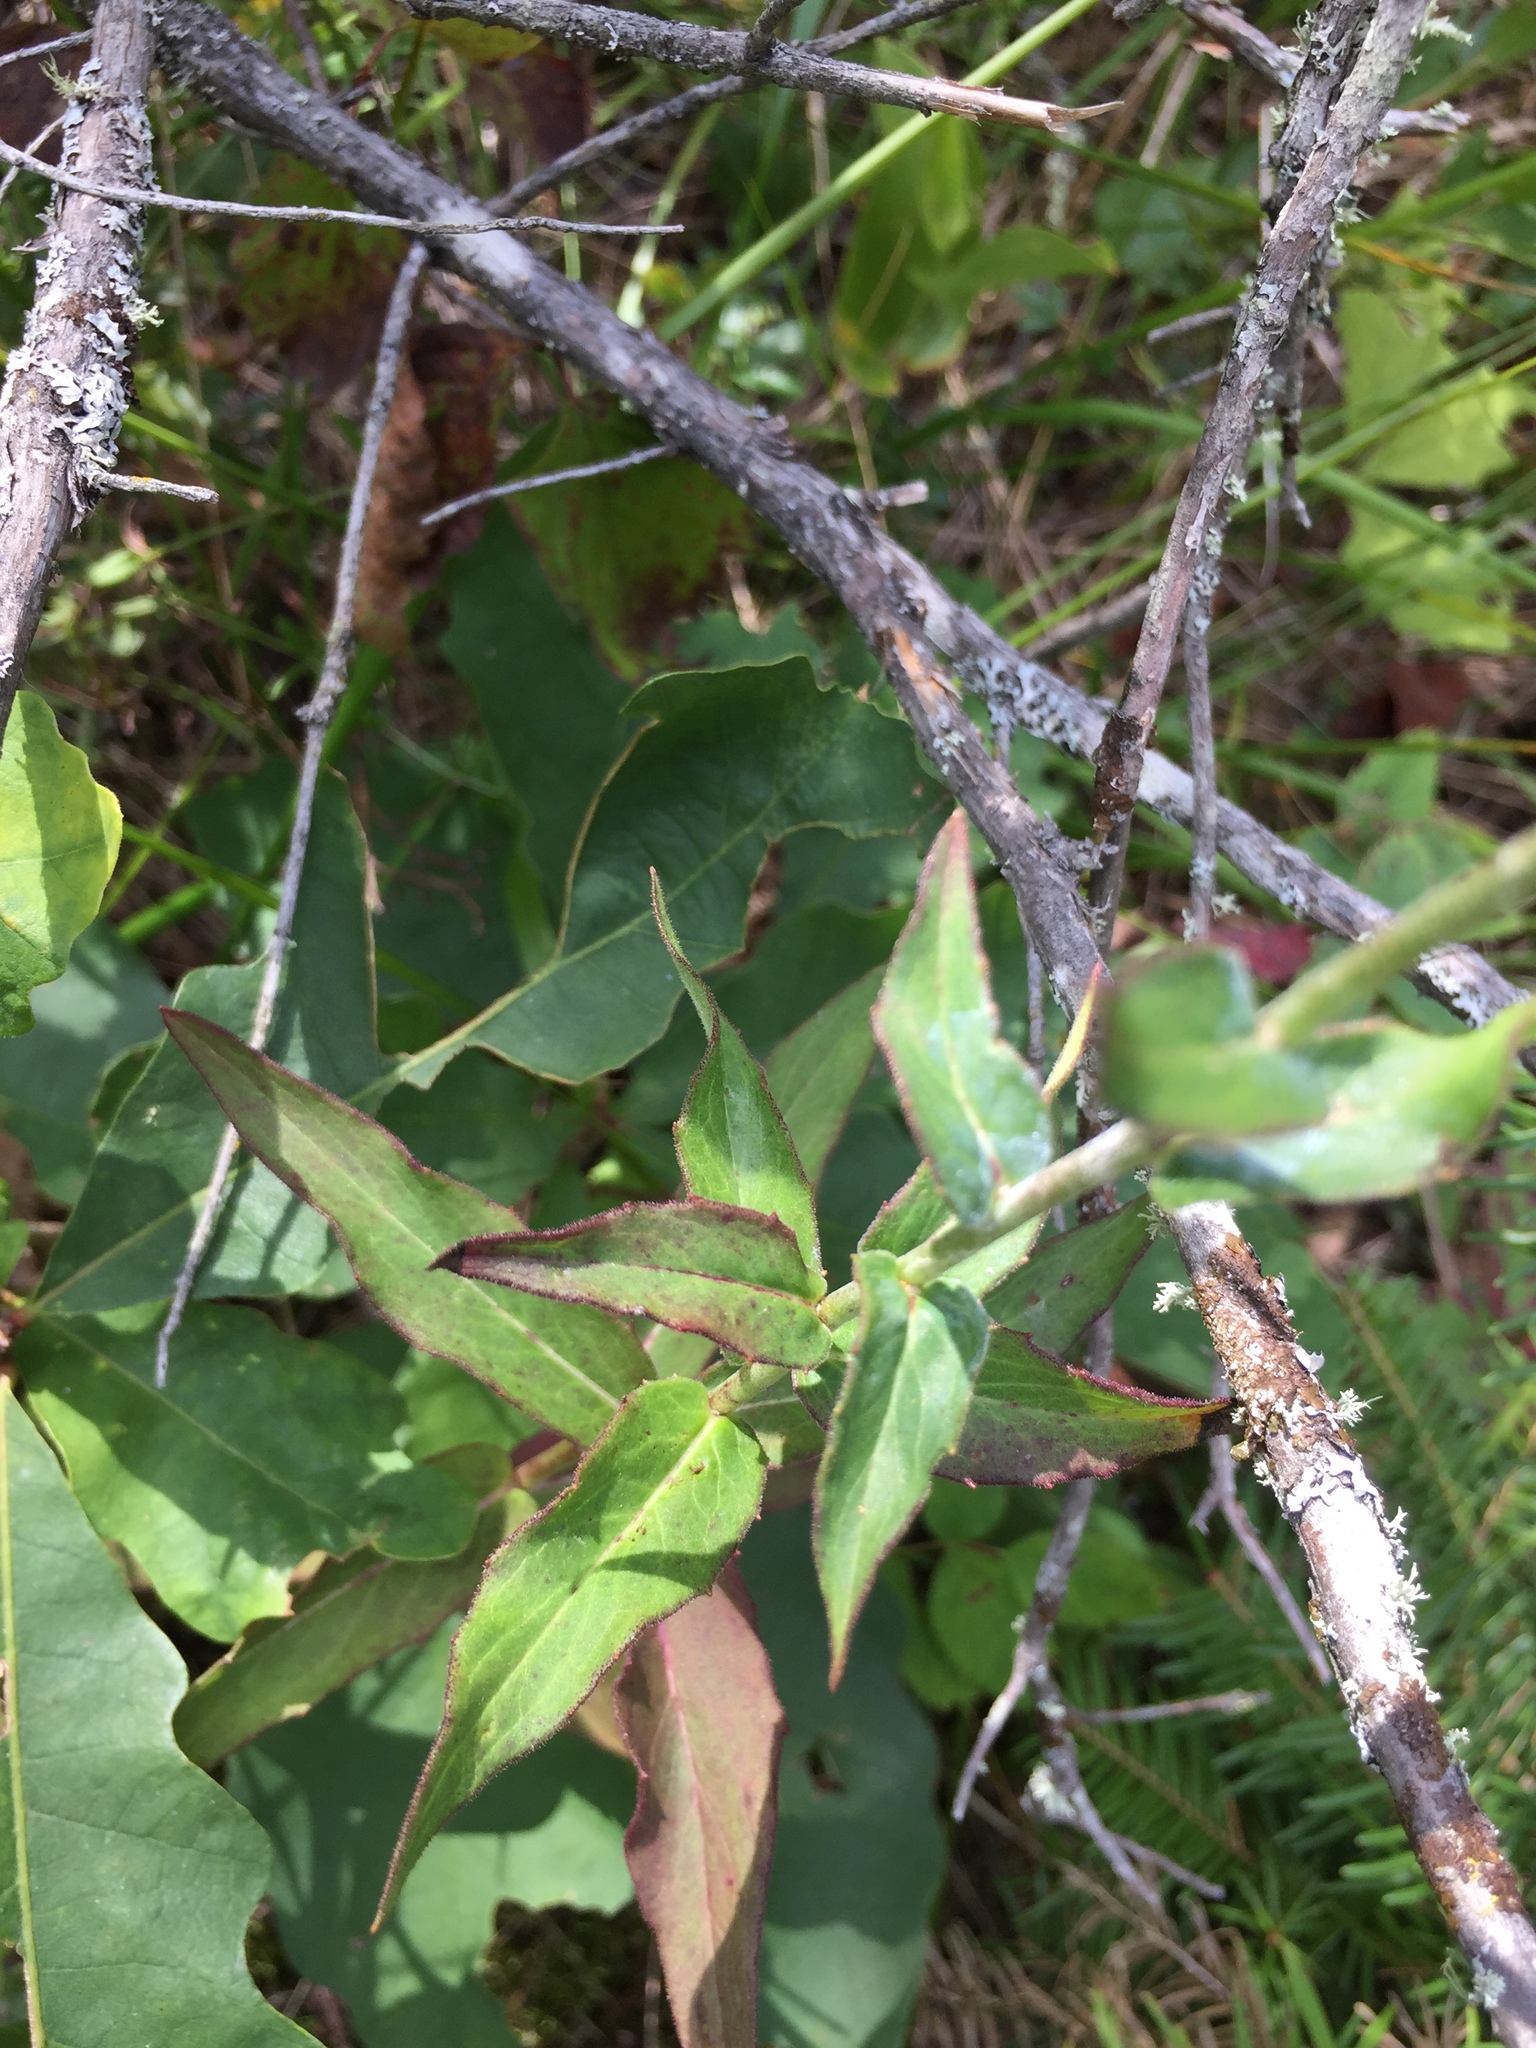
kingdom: Plantae
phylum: Tracheophyta
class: Magnoliopsida
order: Asterales
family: Asteraceae
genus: Hieracium
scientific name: Hieracium umbellatum
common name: Northern hawkweed
